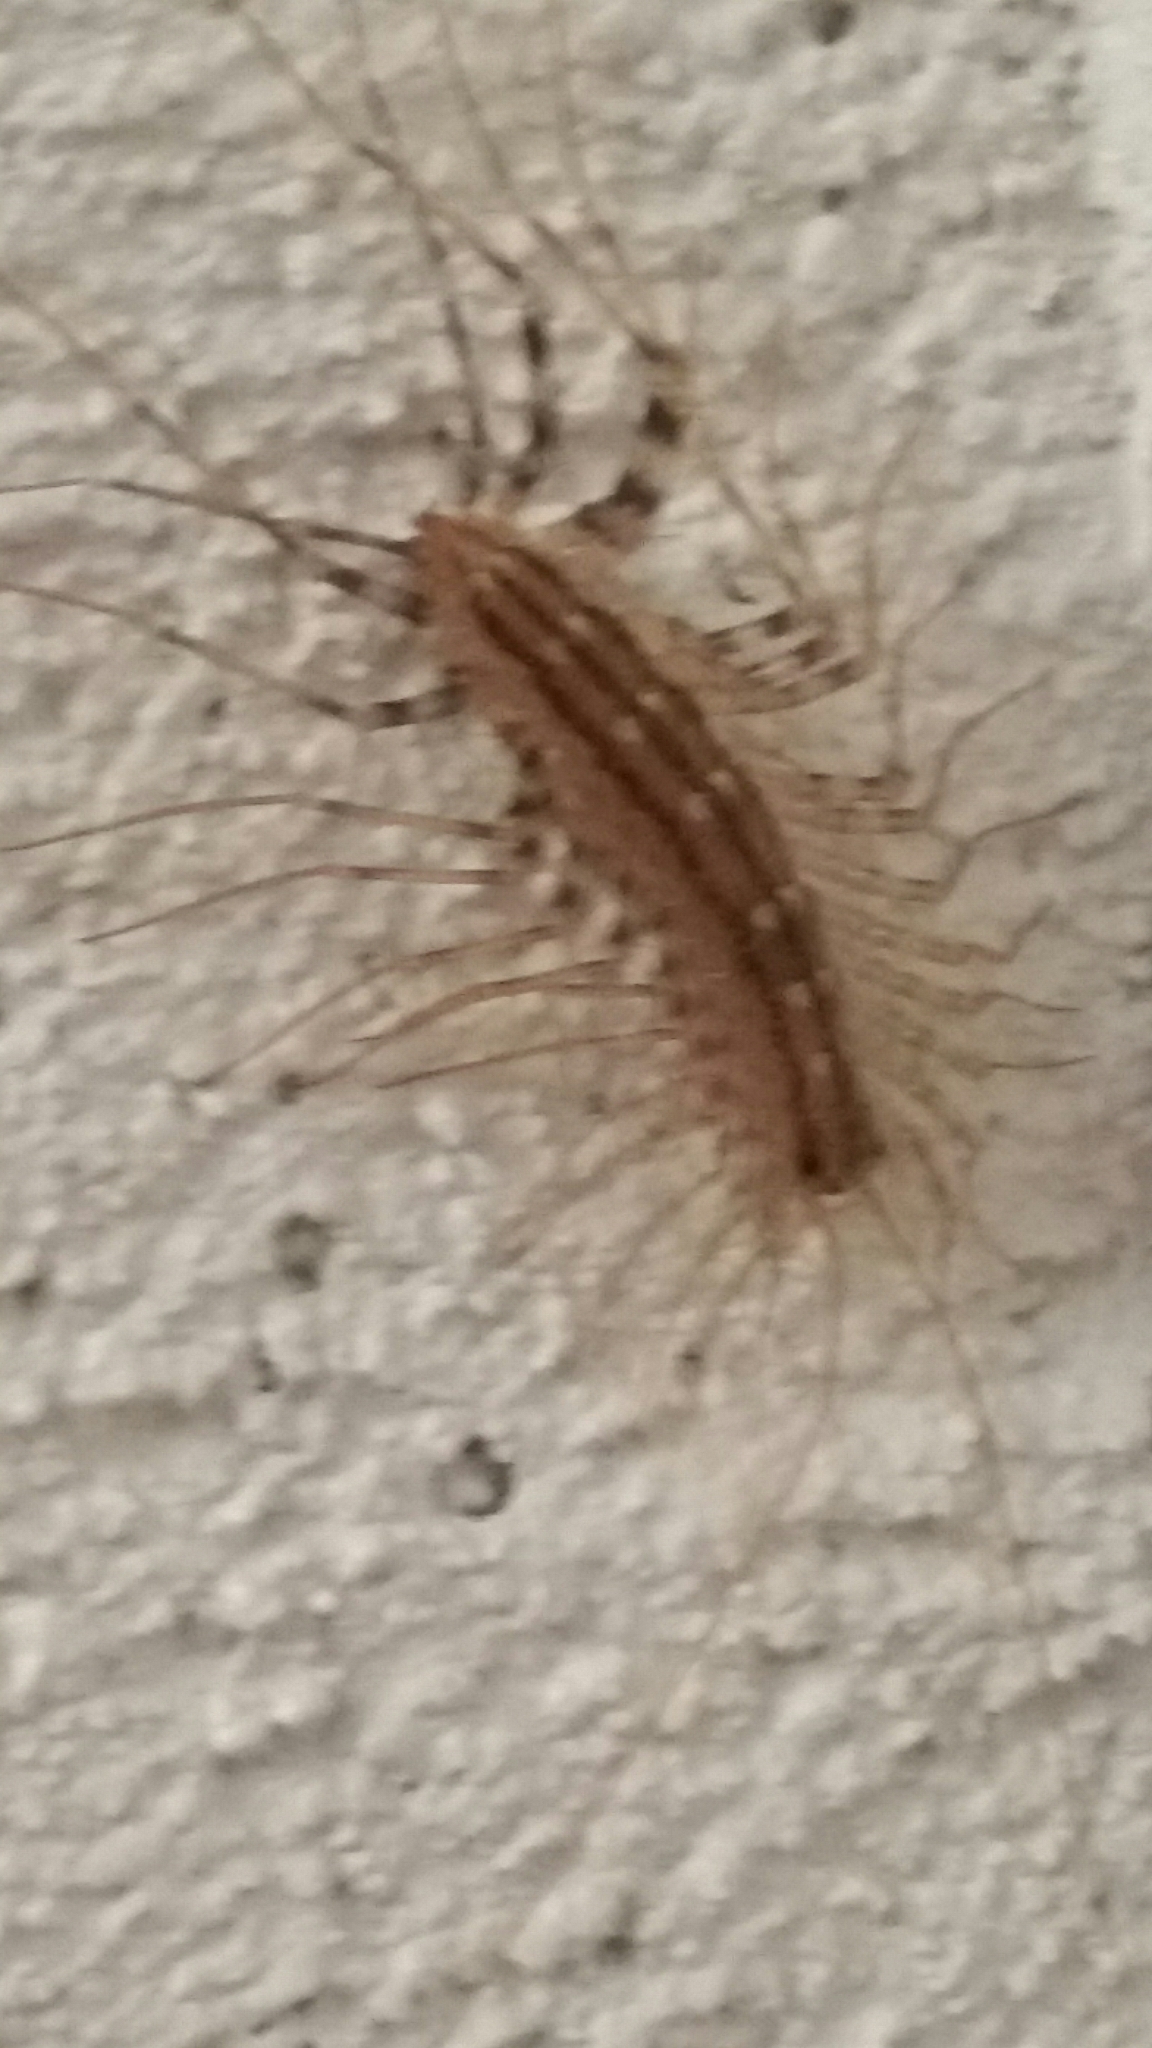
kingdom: Animalia
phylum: Arthropoda
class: Chilopoda
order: Scutigeromorpha
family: Scutigeridae
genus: Scutigera
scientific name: Scutigera coleoptrata
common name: House centipede
